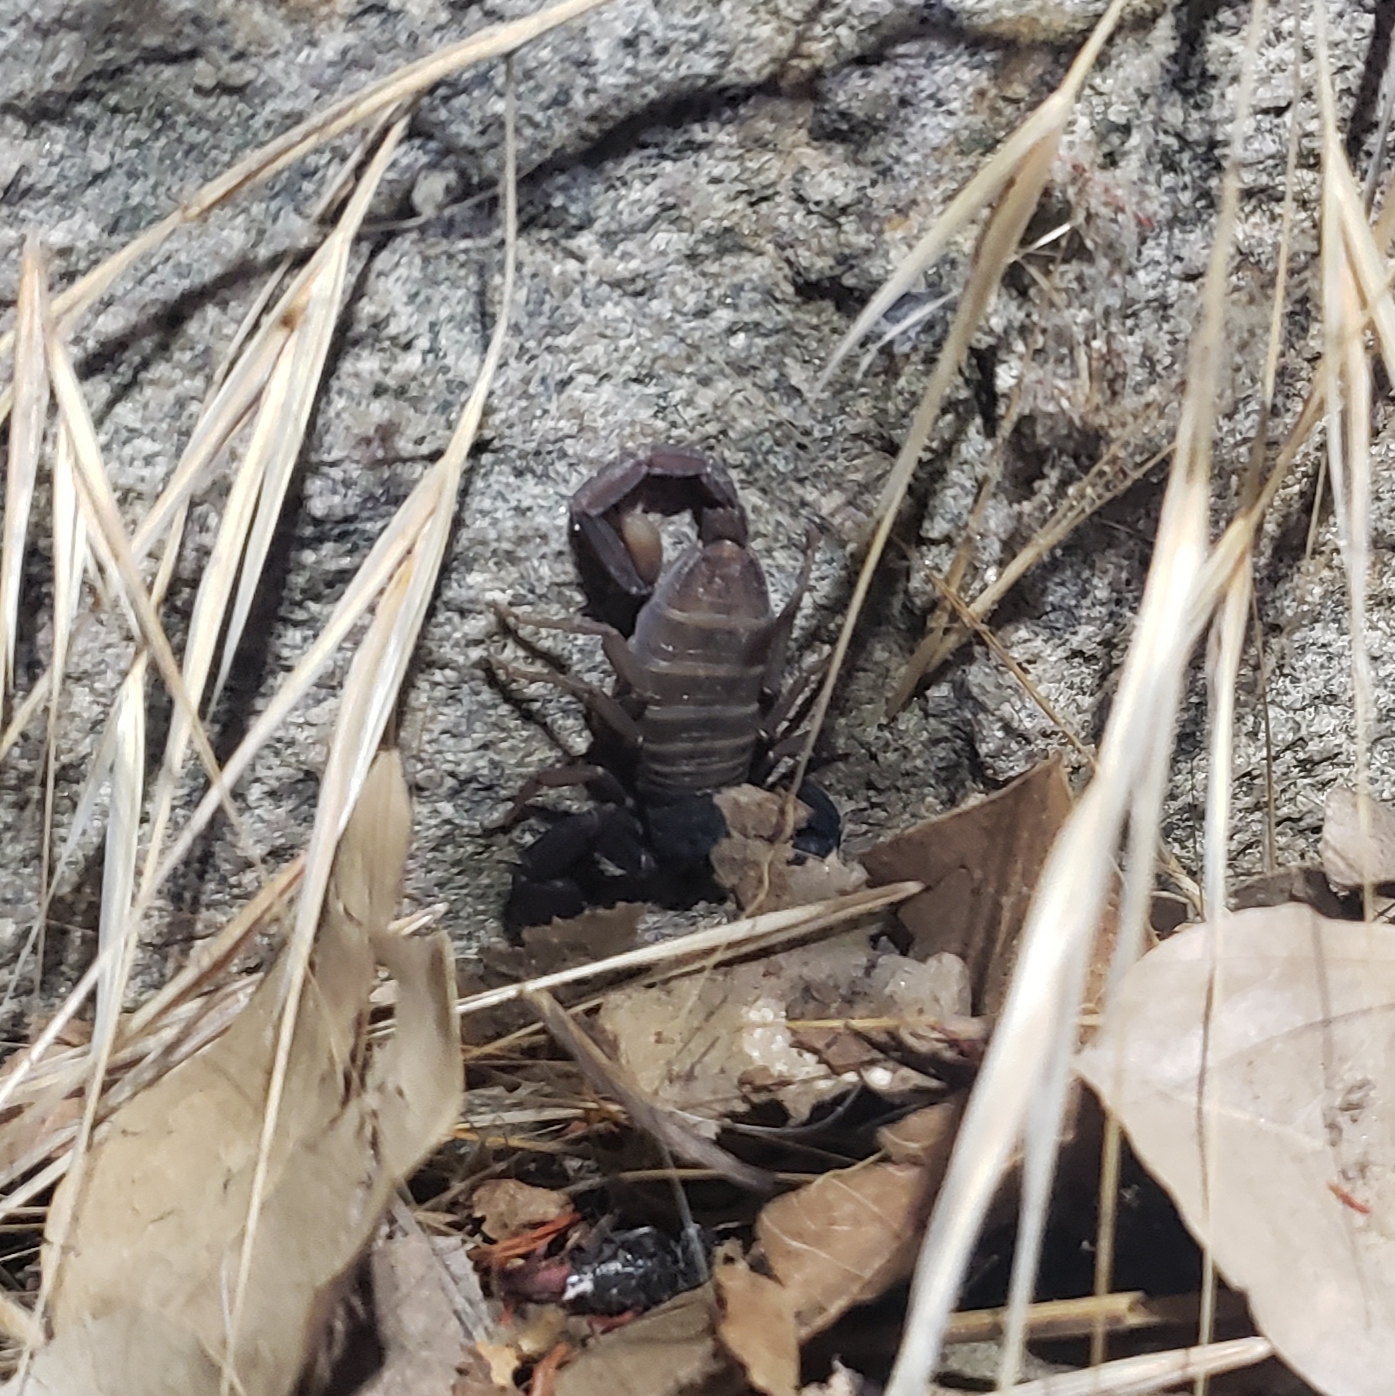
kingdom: Animalia
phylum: Arthropoda
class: Arachnida
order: Scorpiones
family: Vaejovidae
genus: Kovarikia
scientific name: Kovarikia williamsi
